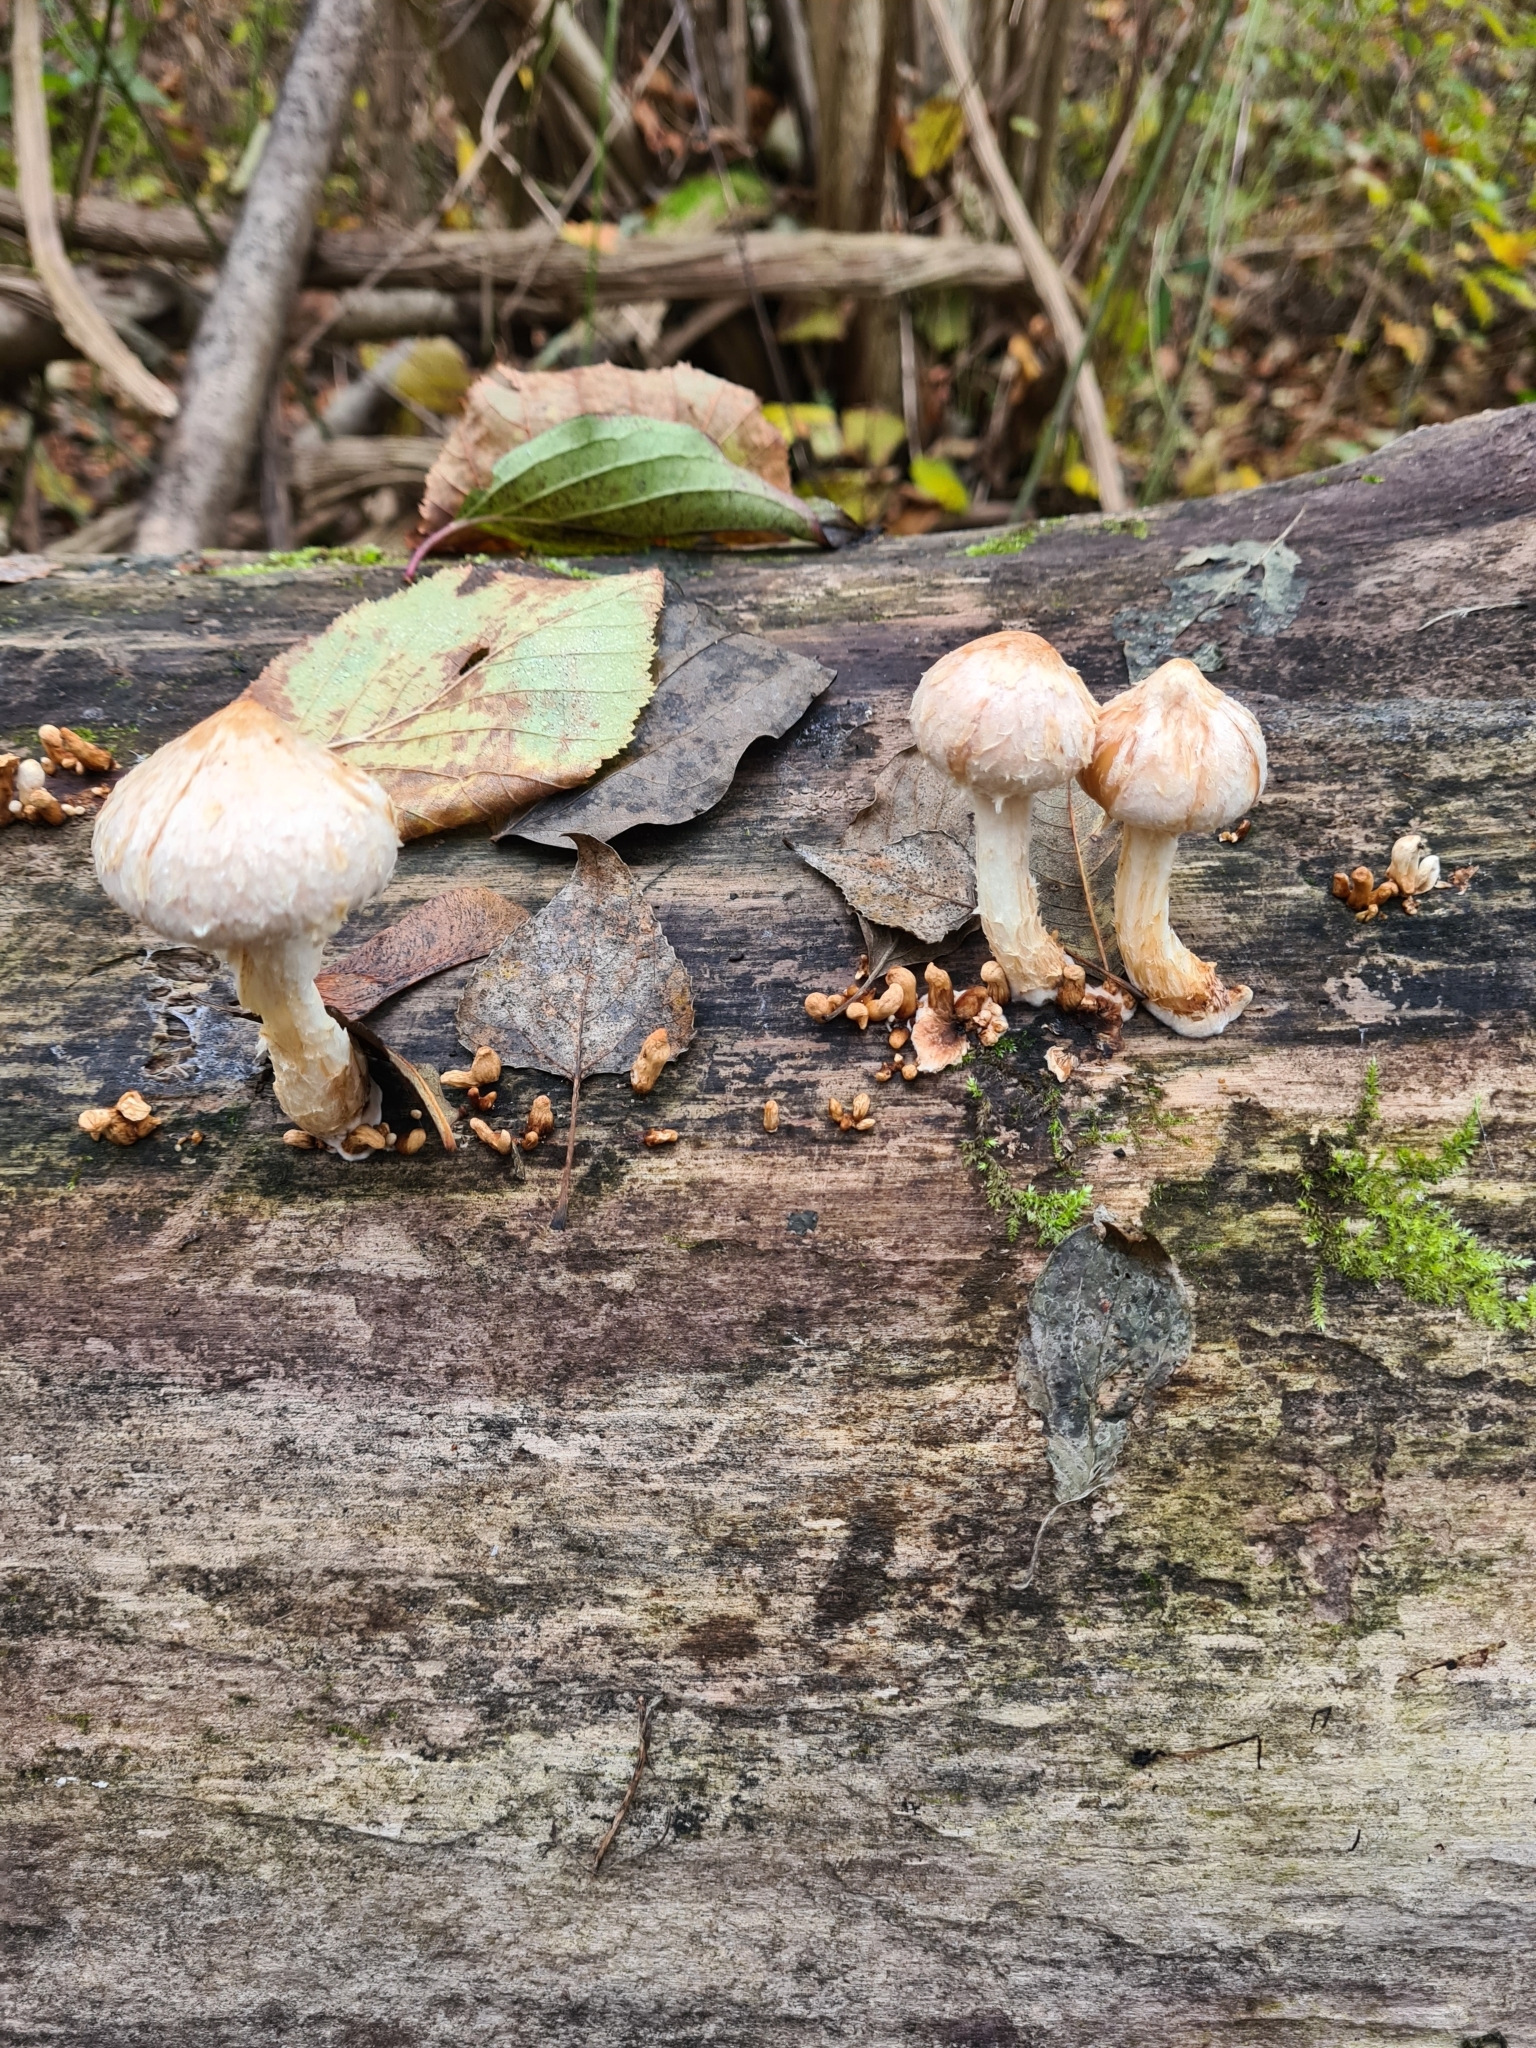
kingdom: Fungi
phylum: Basidiomycota
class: Agaricomycetes
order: Agaricales
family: Strophariaceae
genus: Pholiota
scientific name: Pholiota populnea
